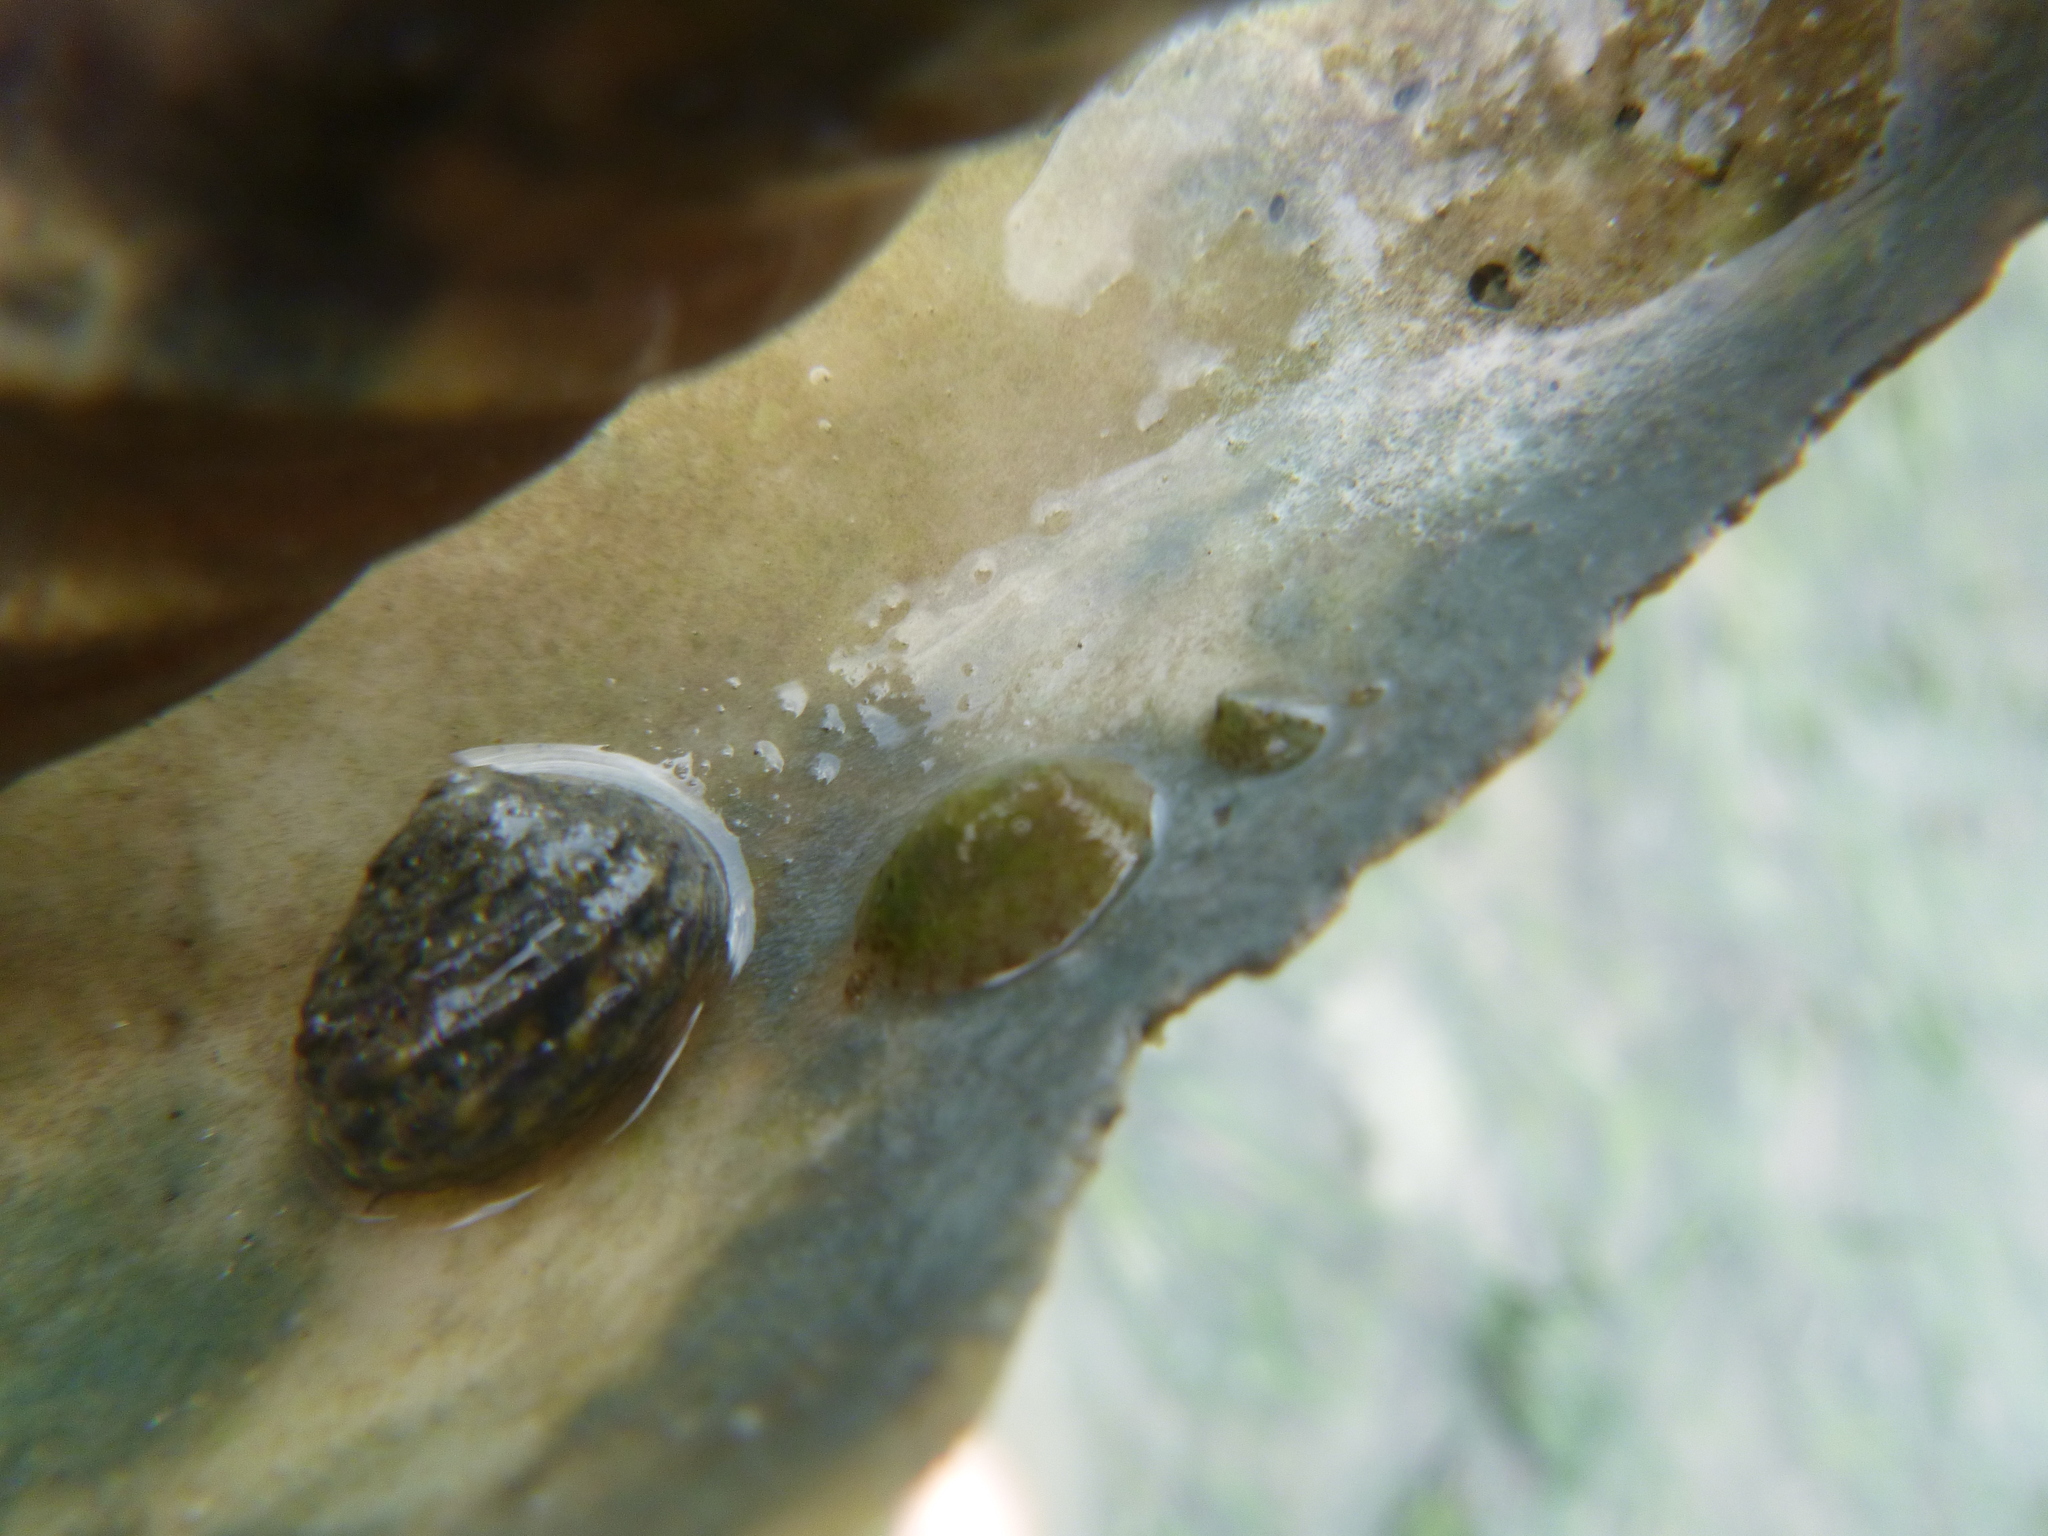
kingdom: Animalia
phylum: Mollusca
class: Gastropoda
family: Lottiidae
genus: Notoacmea
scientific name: Notoacmea
